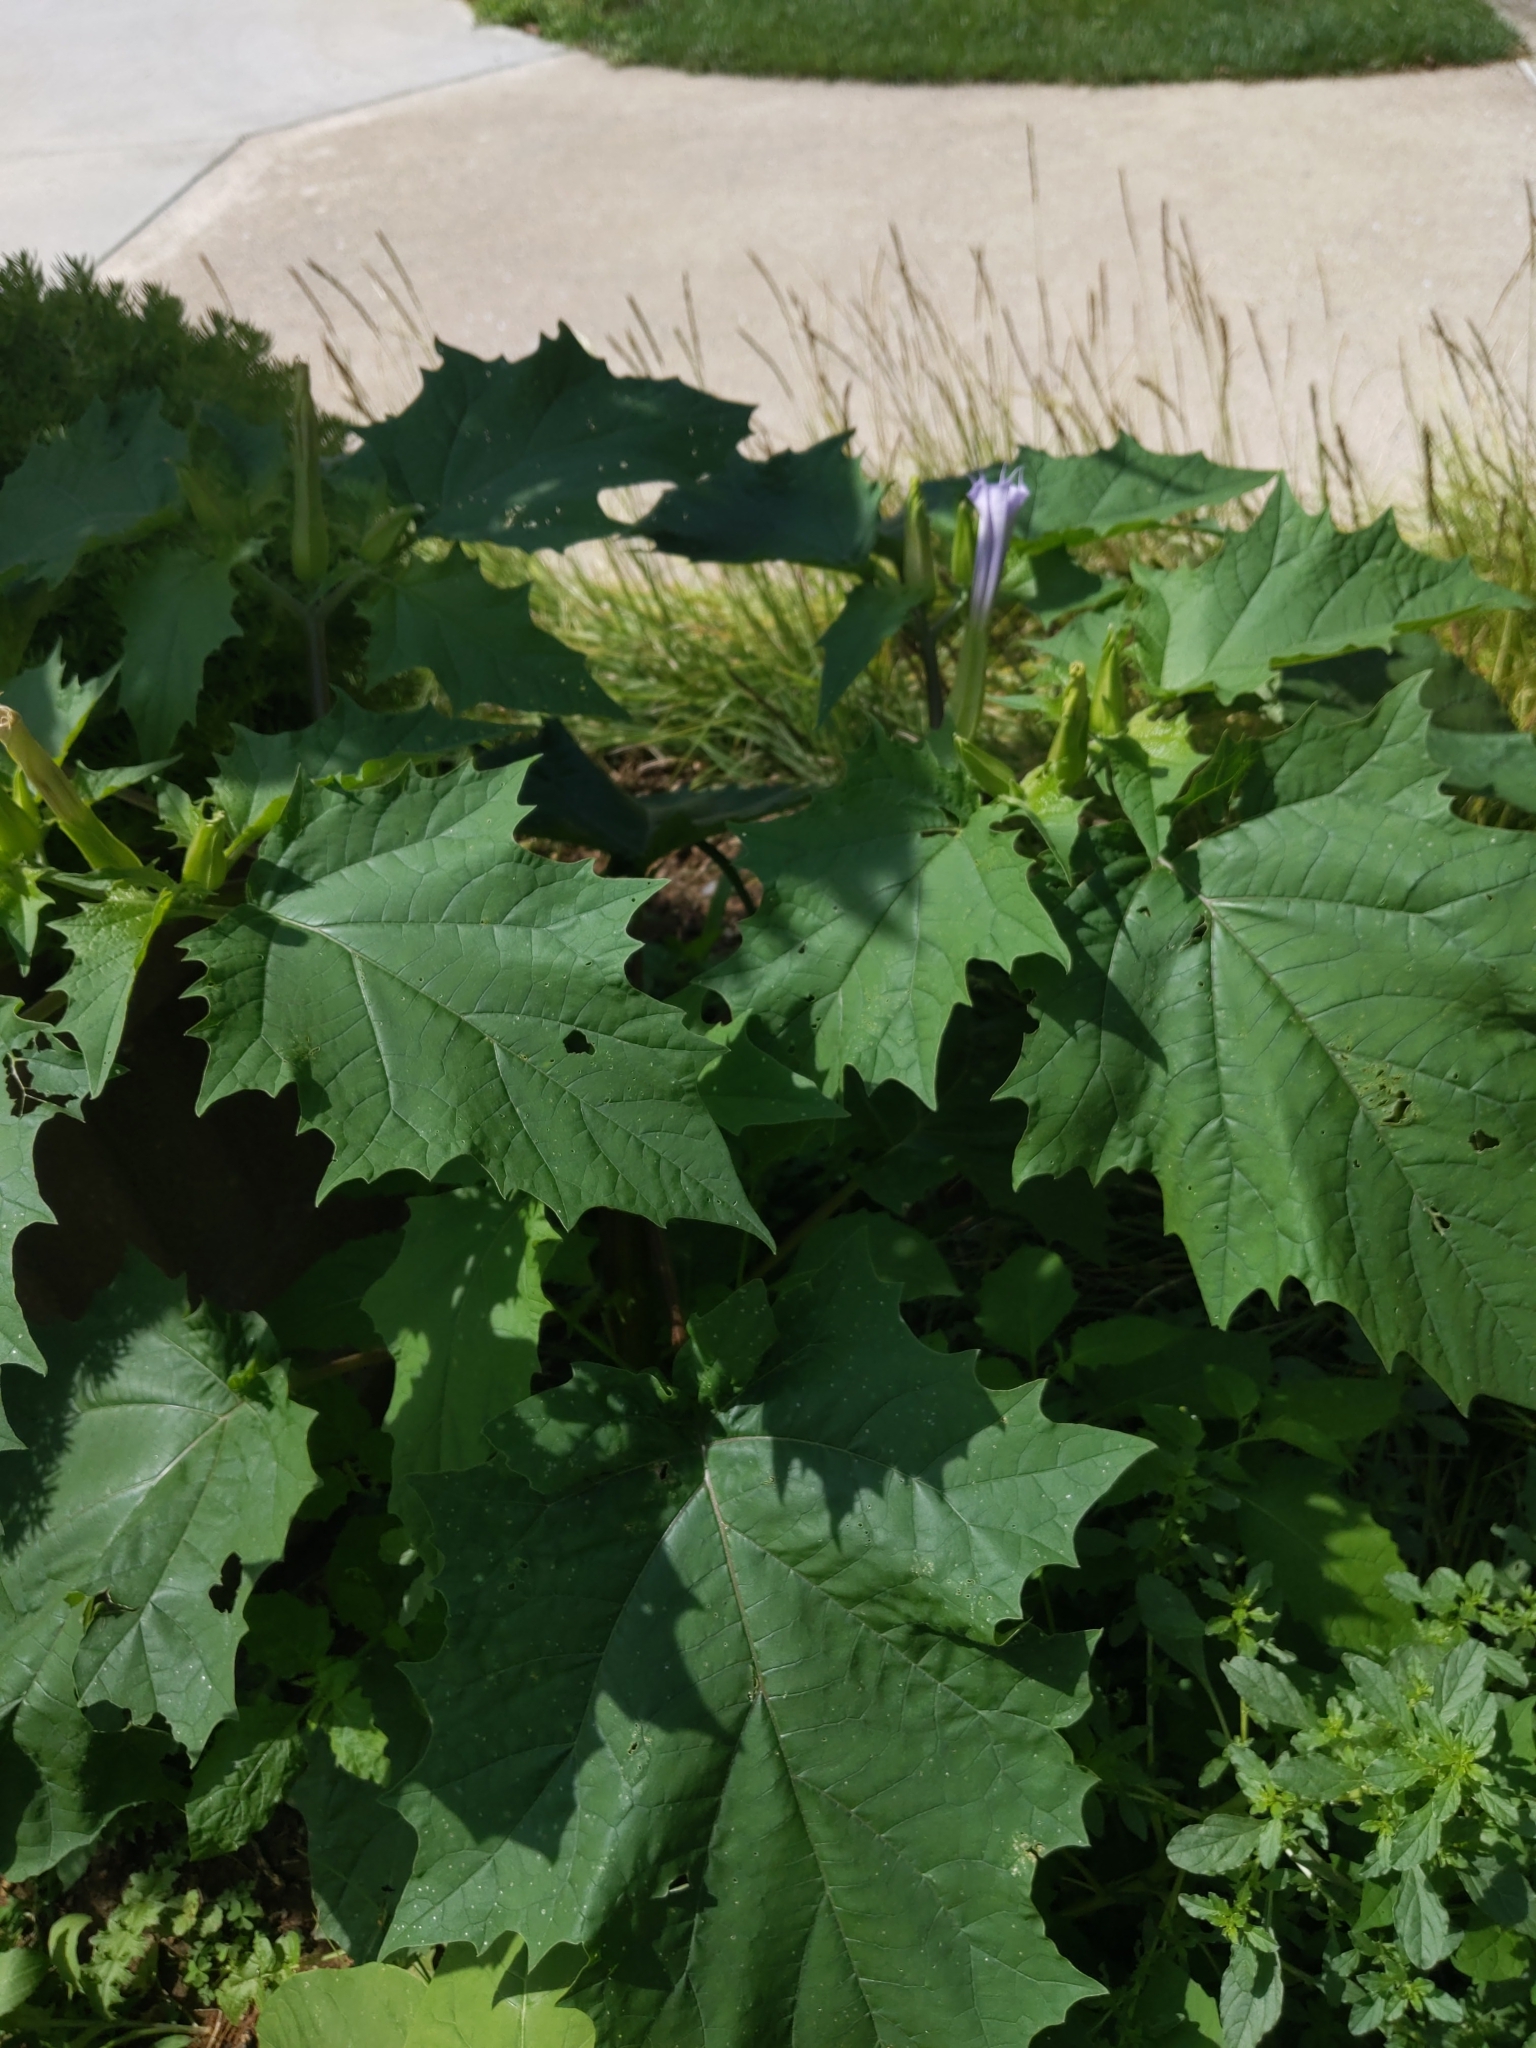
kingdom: Plantae
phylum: Tracheophyta
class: Magnoliopsida
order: Solanales
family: Solanaceae
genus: Datura
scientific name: Datura stramonium
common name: Thorn-apple
